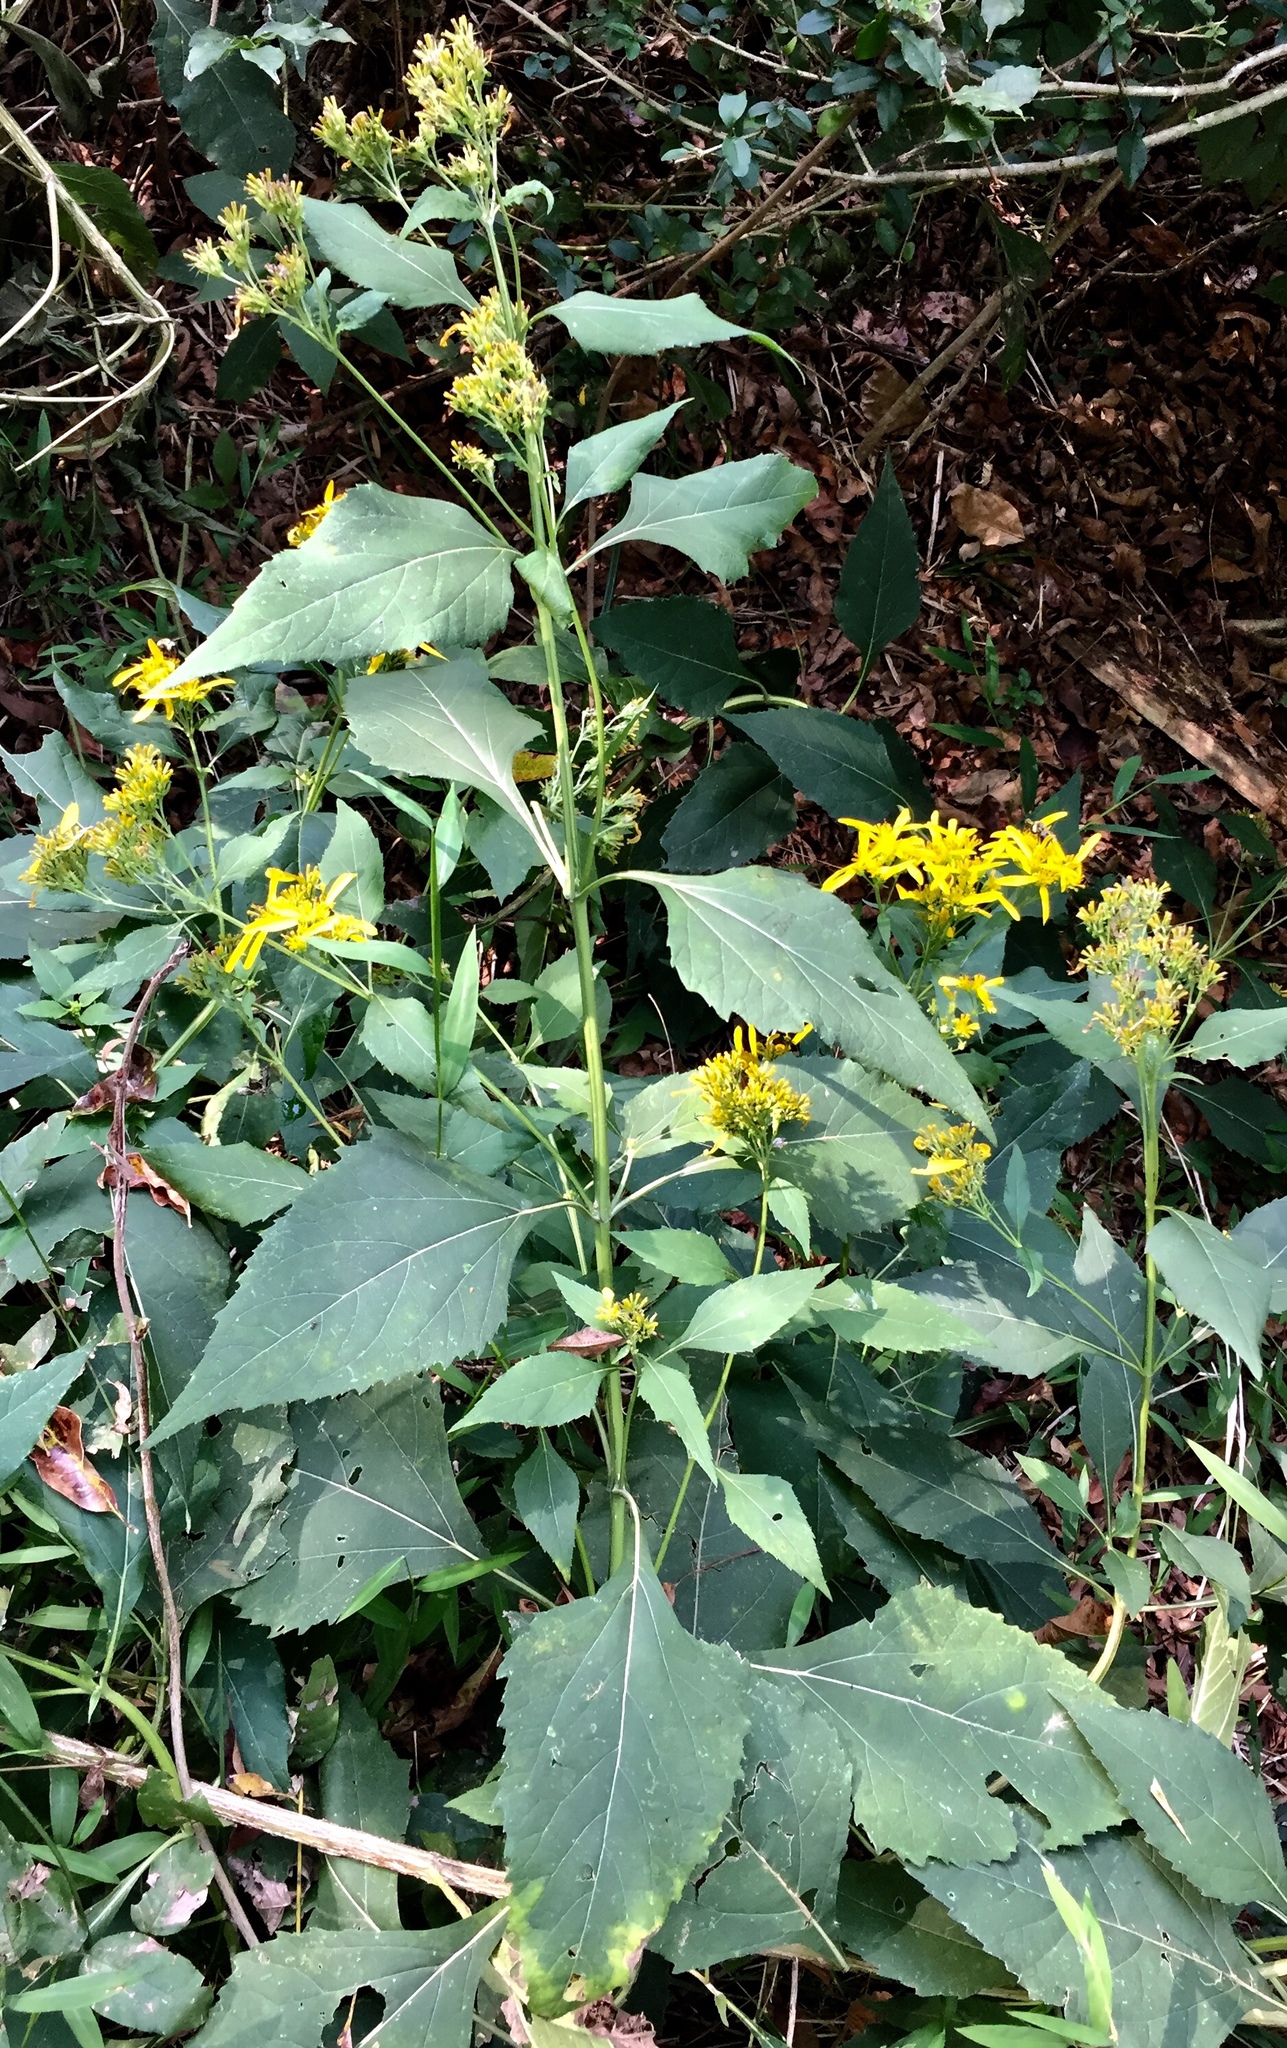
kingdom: Plantae
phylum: Tracheophyta
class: Magnoliopsida
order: Asterales
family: Asteraceae
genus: Verbesina
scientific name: Verbesina occidentalis
